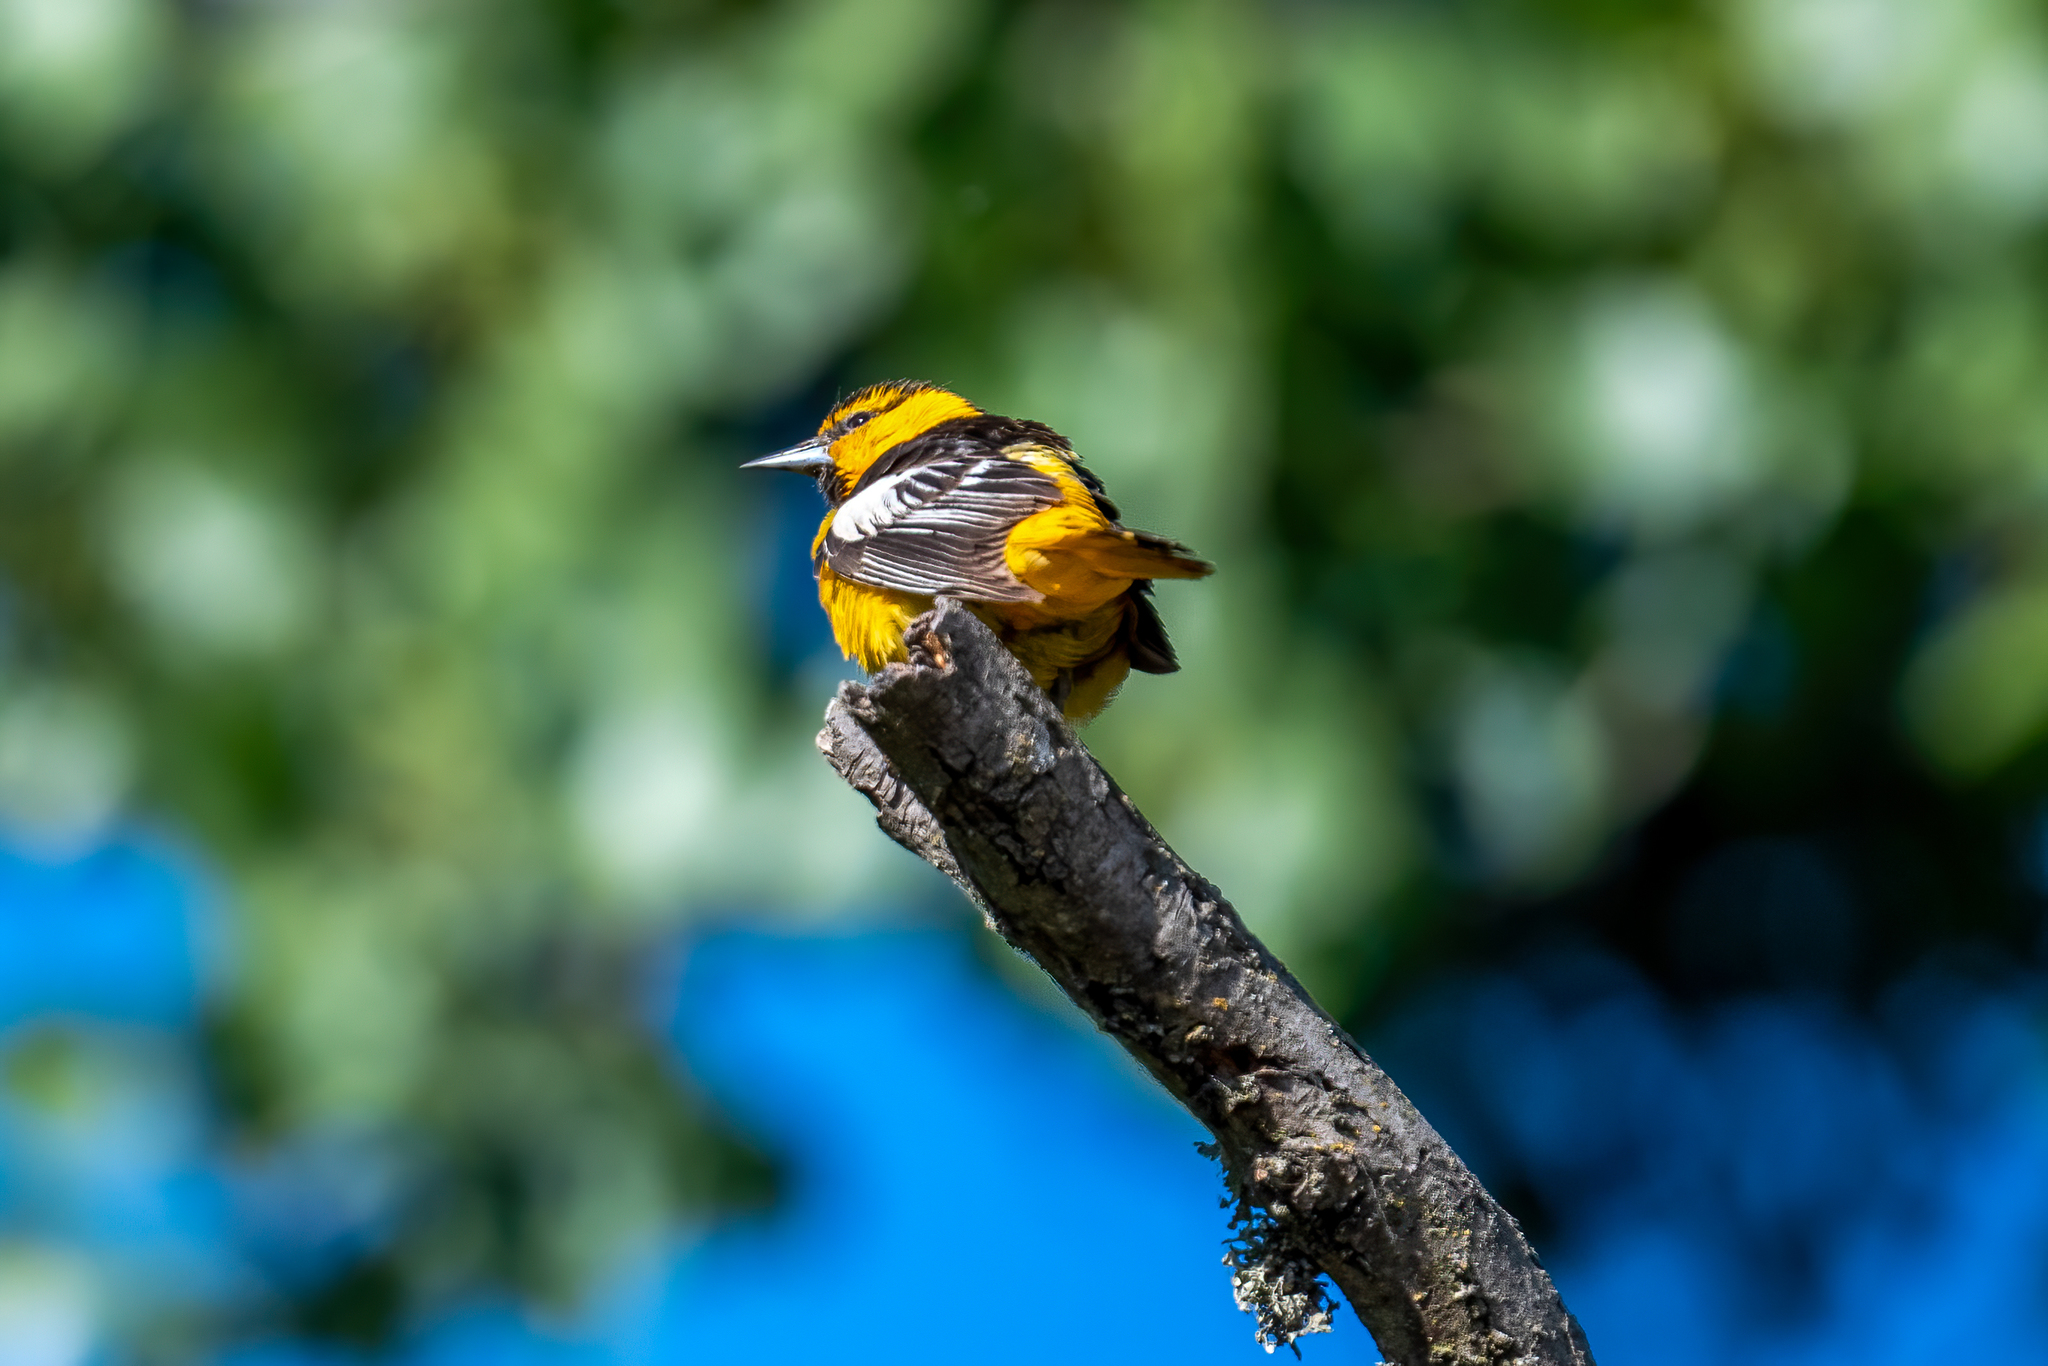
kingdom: Animalia
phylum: Chordata
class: Aves
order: Passeriformes
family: Icteridae
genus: Icterus
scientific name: Icterus bullockii
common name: Bullock's oriole
